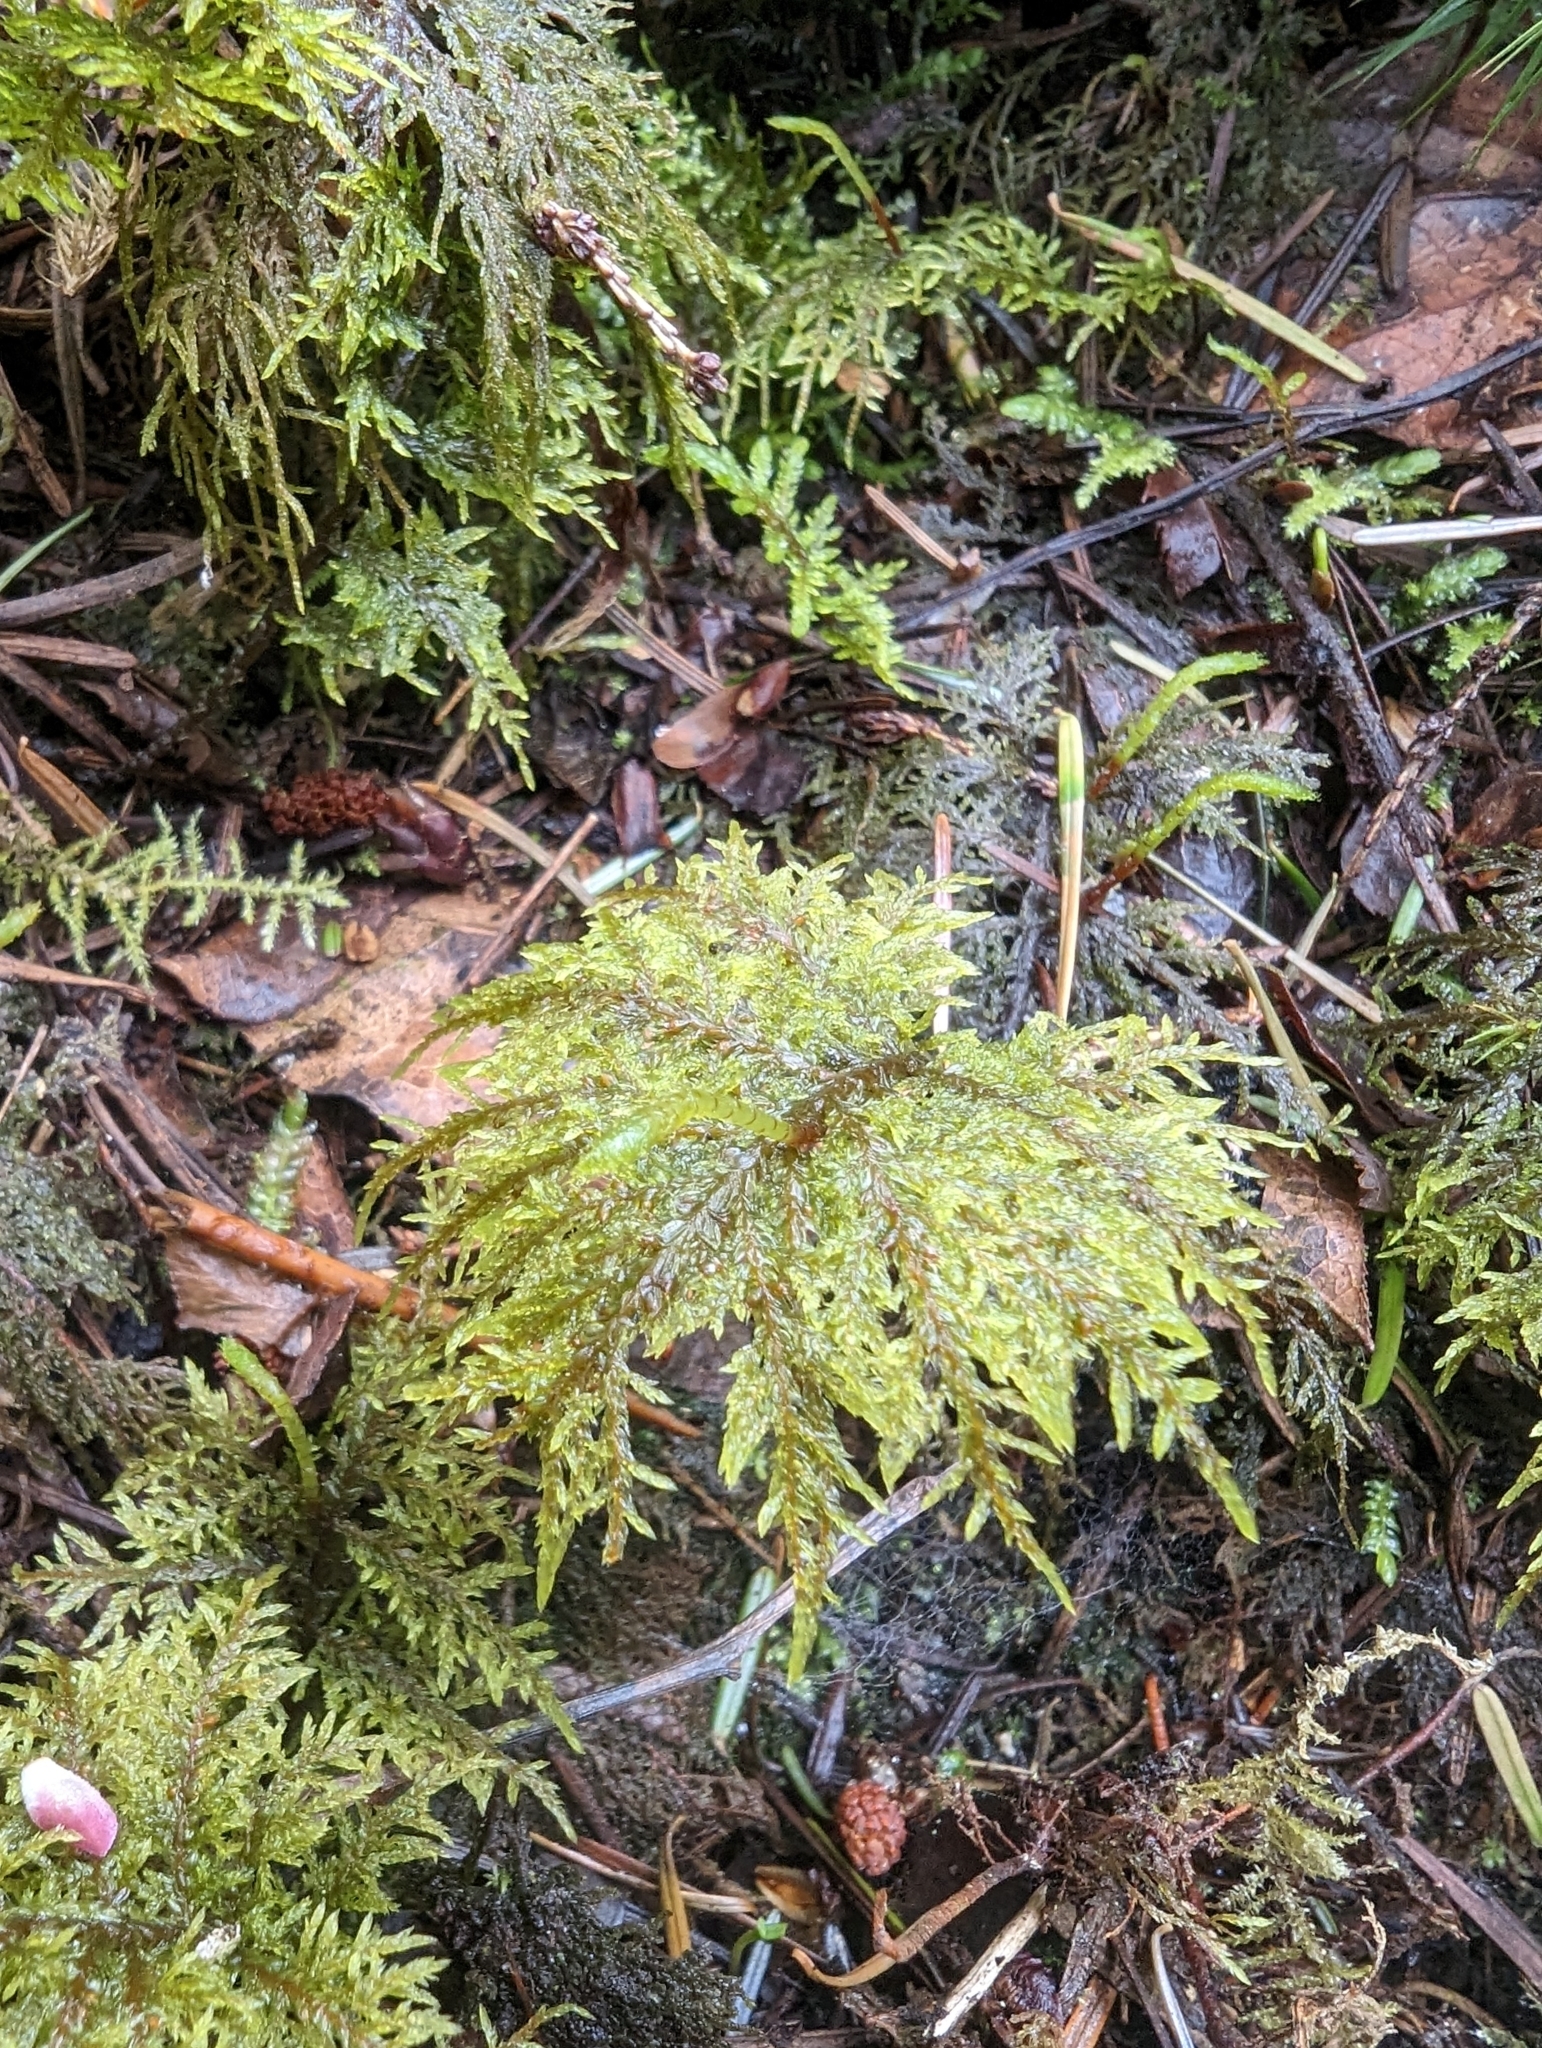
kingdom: Plantae
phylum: Bryophyta
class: Bryopsida
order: Hypnales
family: Hylocomiaceae
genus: Hylocomium
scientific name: Hylocomium splendens
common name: Stairstep moss
